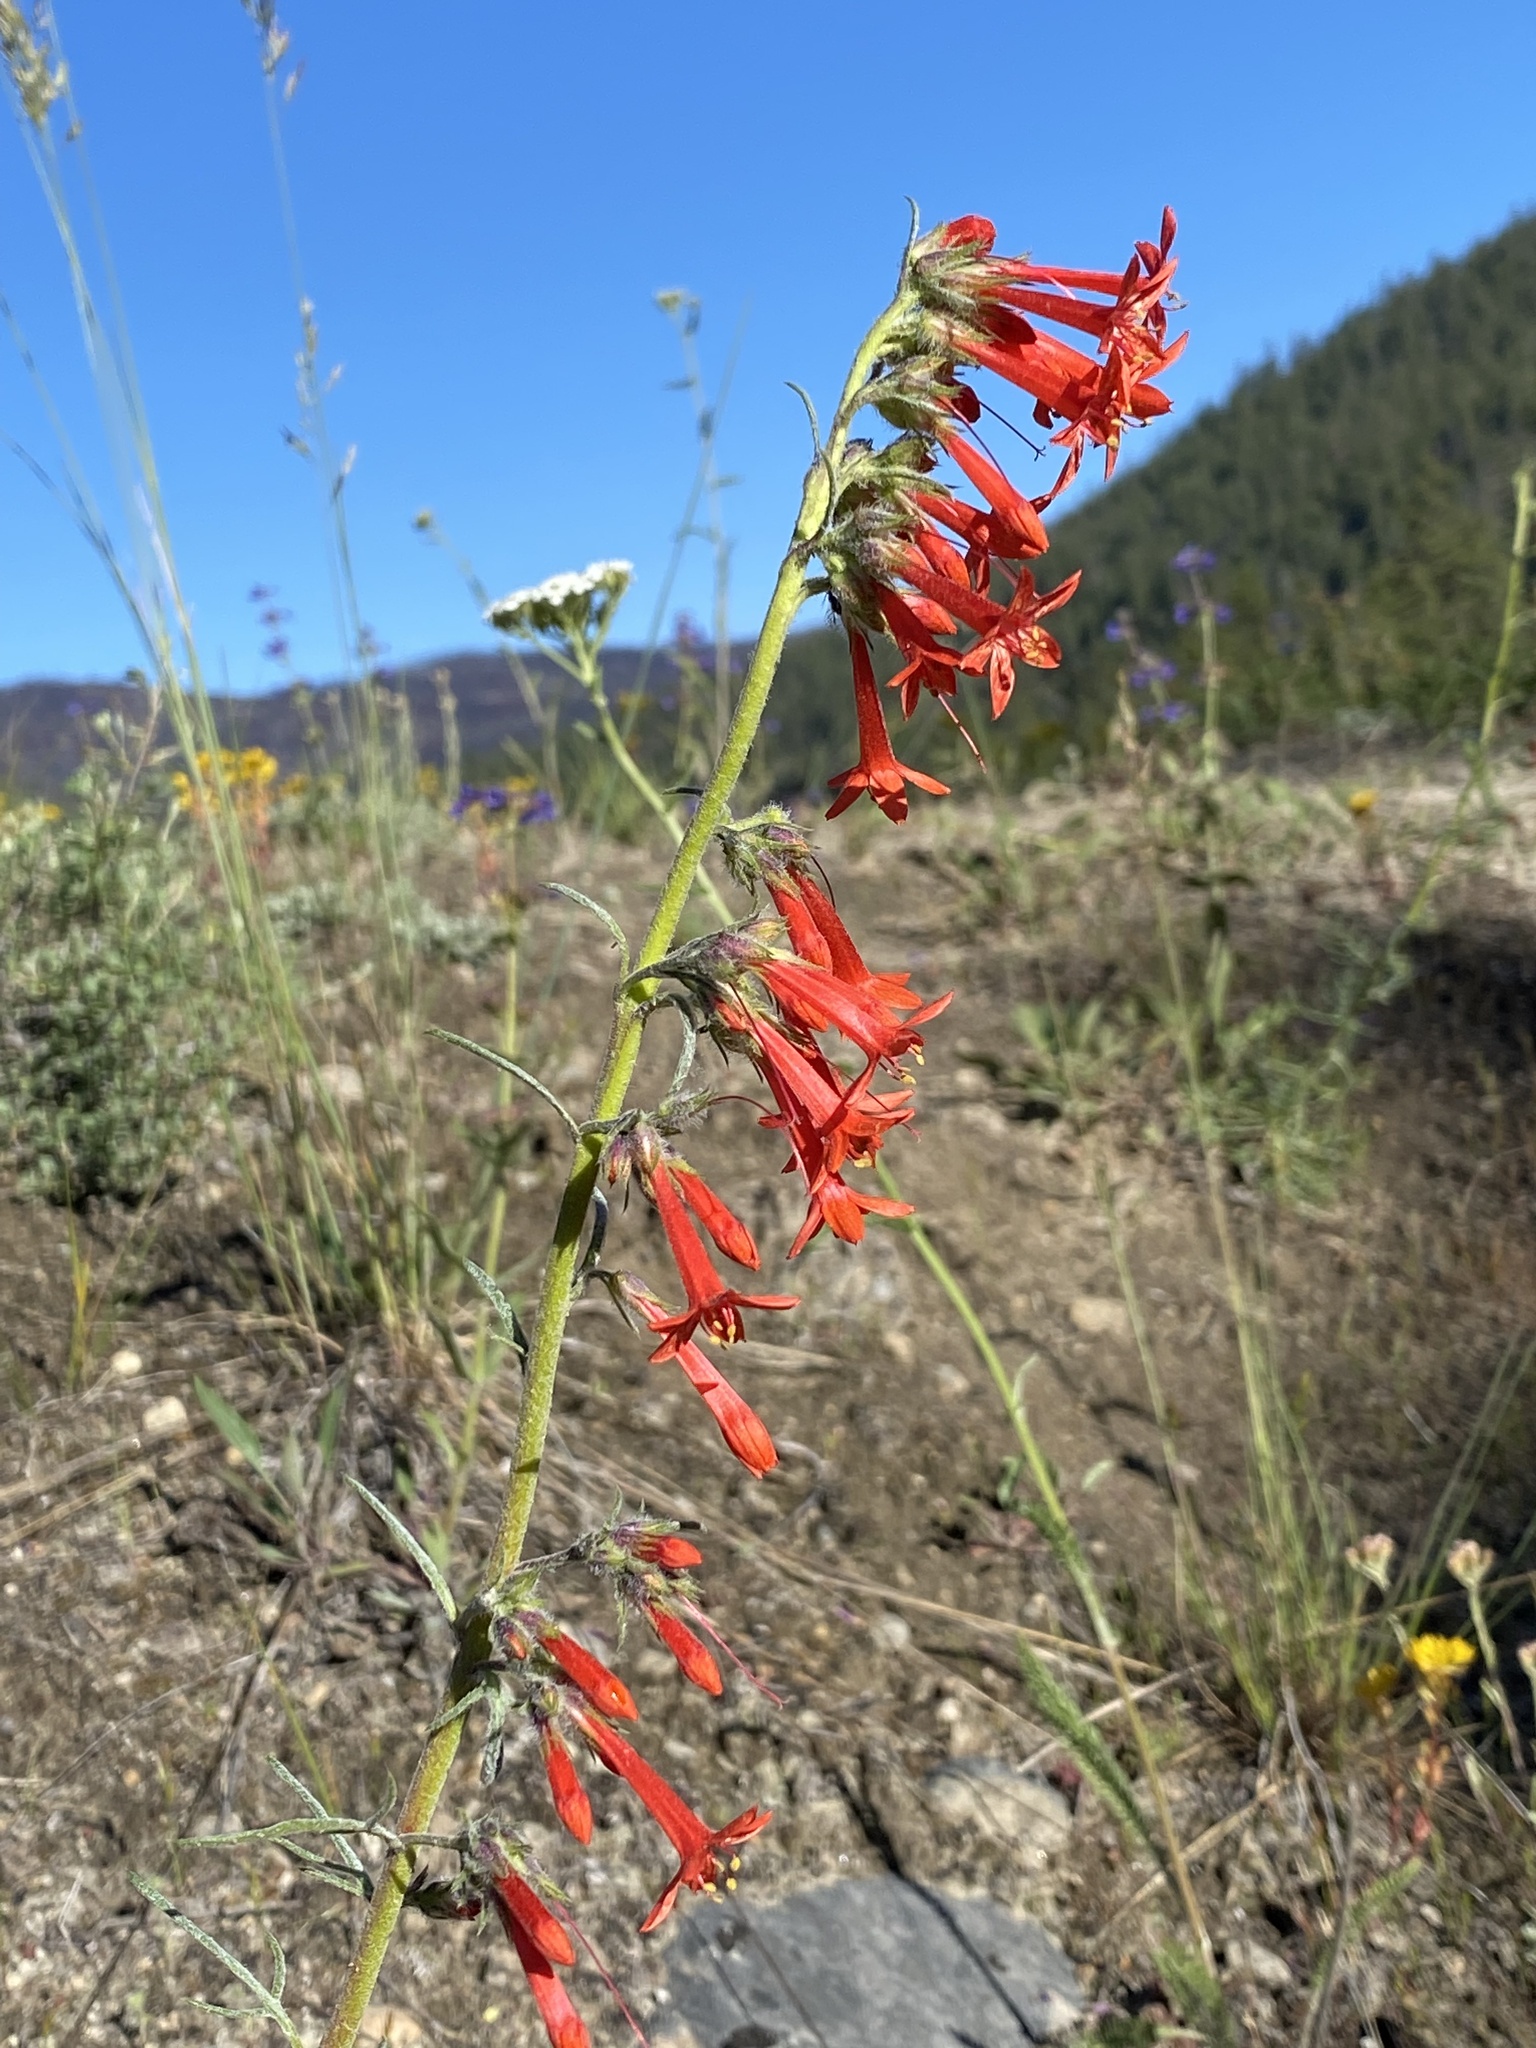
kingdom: Plantae
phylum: Tracheophyta
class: Magnoliopsida
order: Ericales
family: Polemoniaceae
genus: Ipomopsis
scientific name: Ipomopsis aggregata
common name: Scarlet gilia
